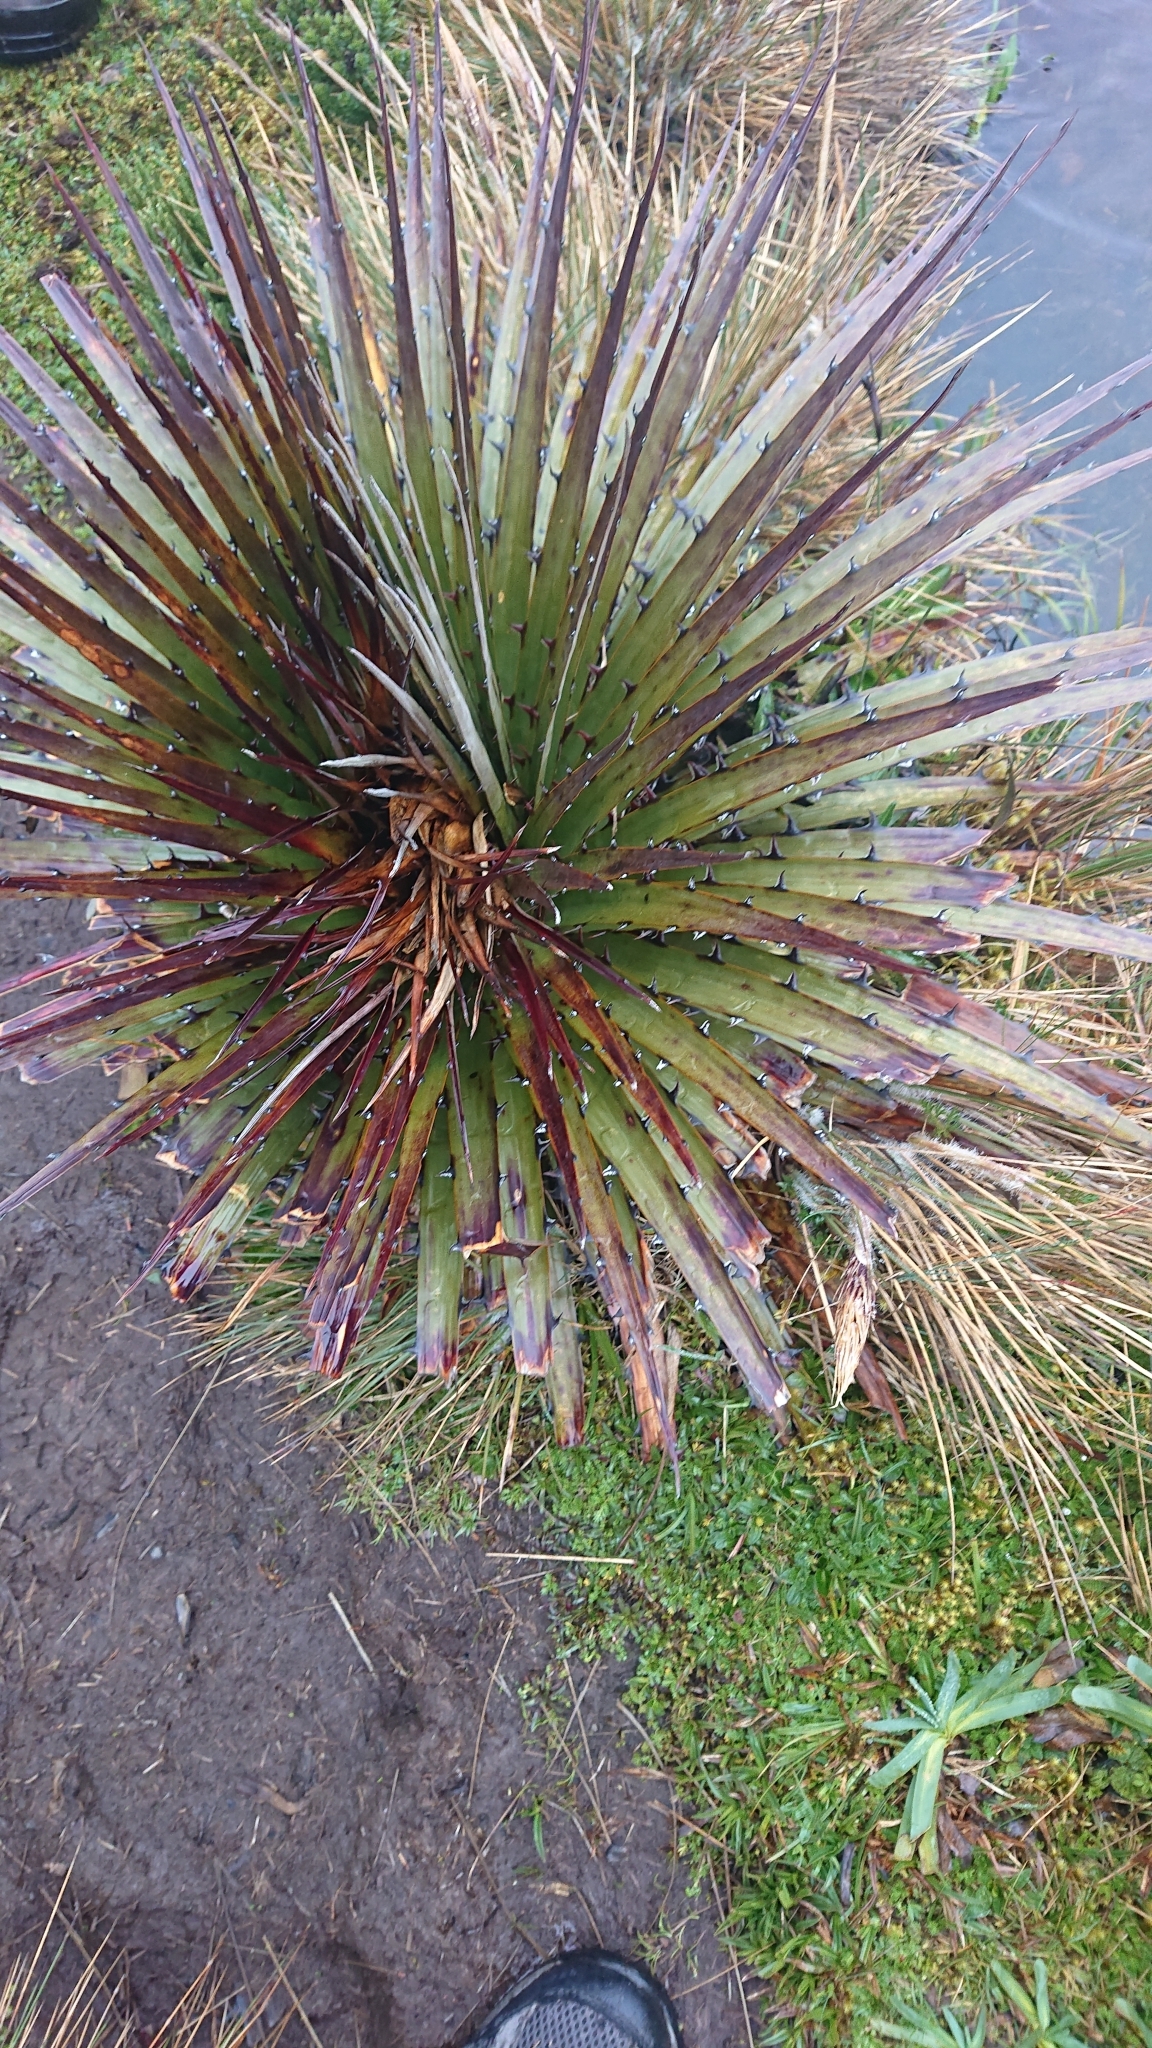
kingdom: Plantae
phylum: Tracheophyta
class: Liliopsida
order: Poales
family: Bromeliaceae
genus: Puya
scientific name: Puya clava-herculis
